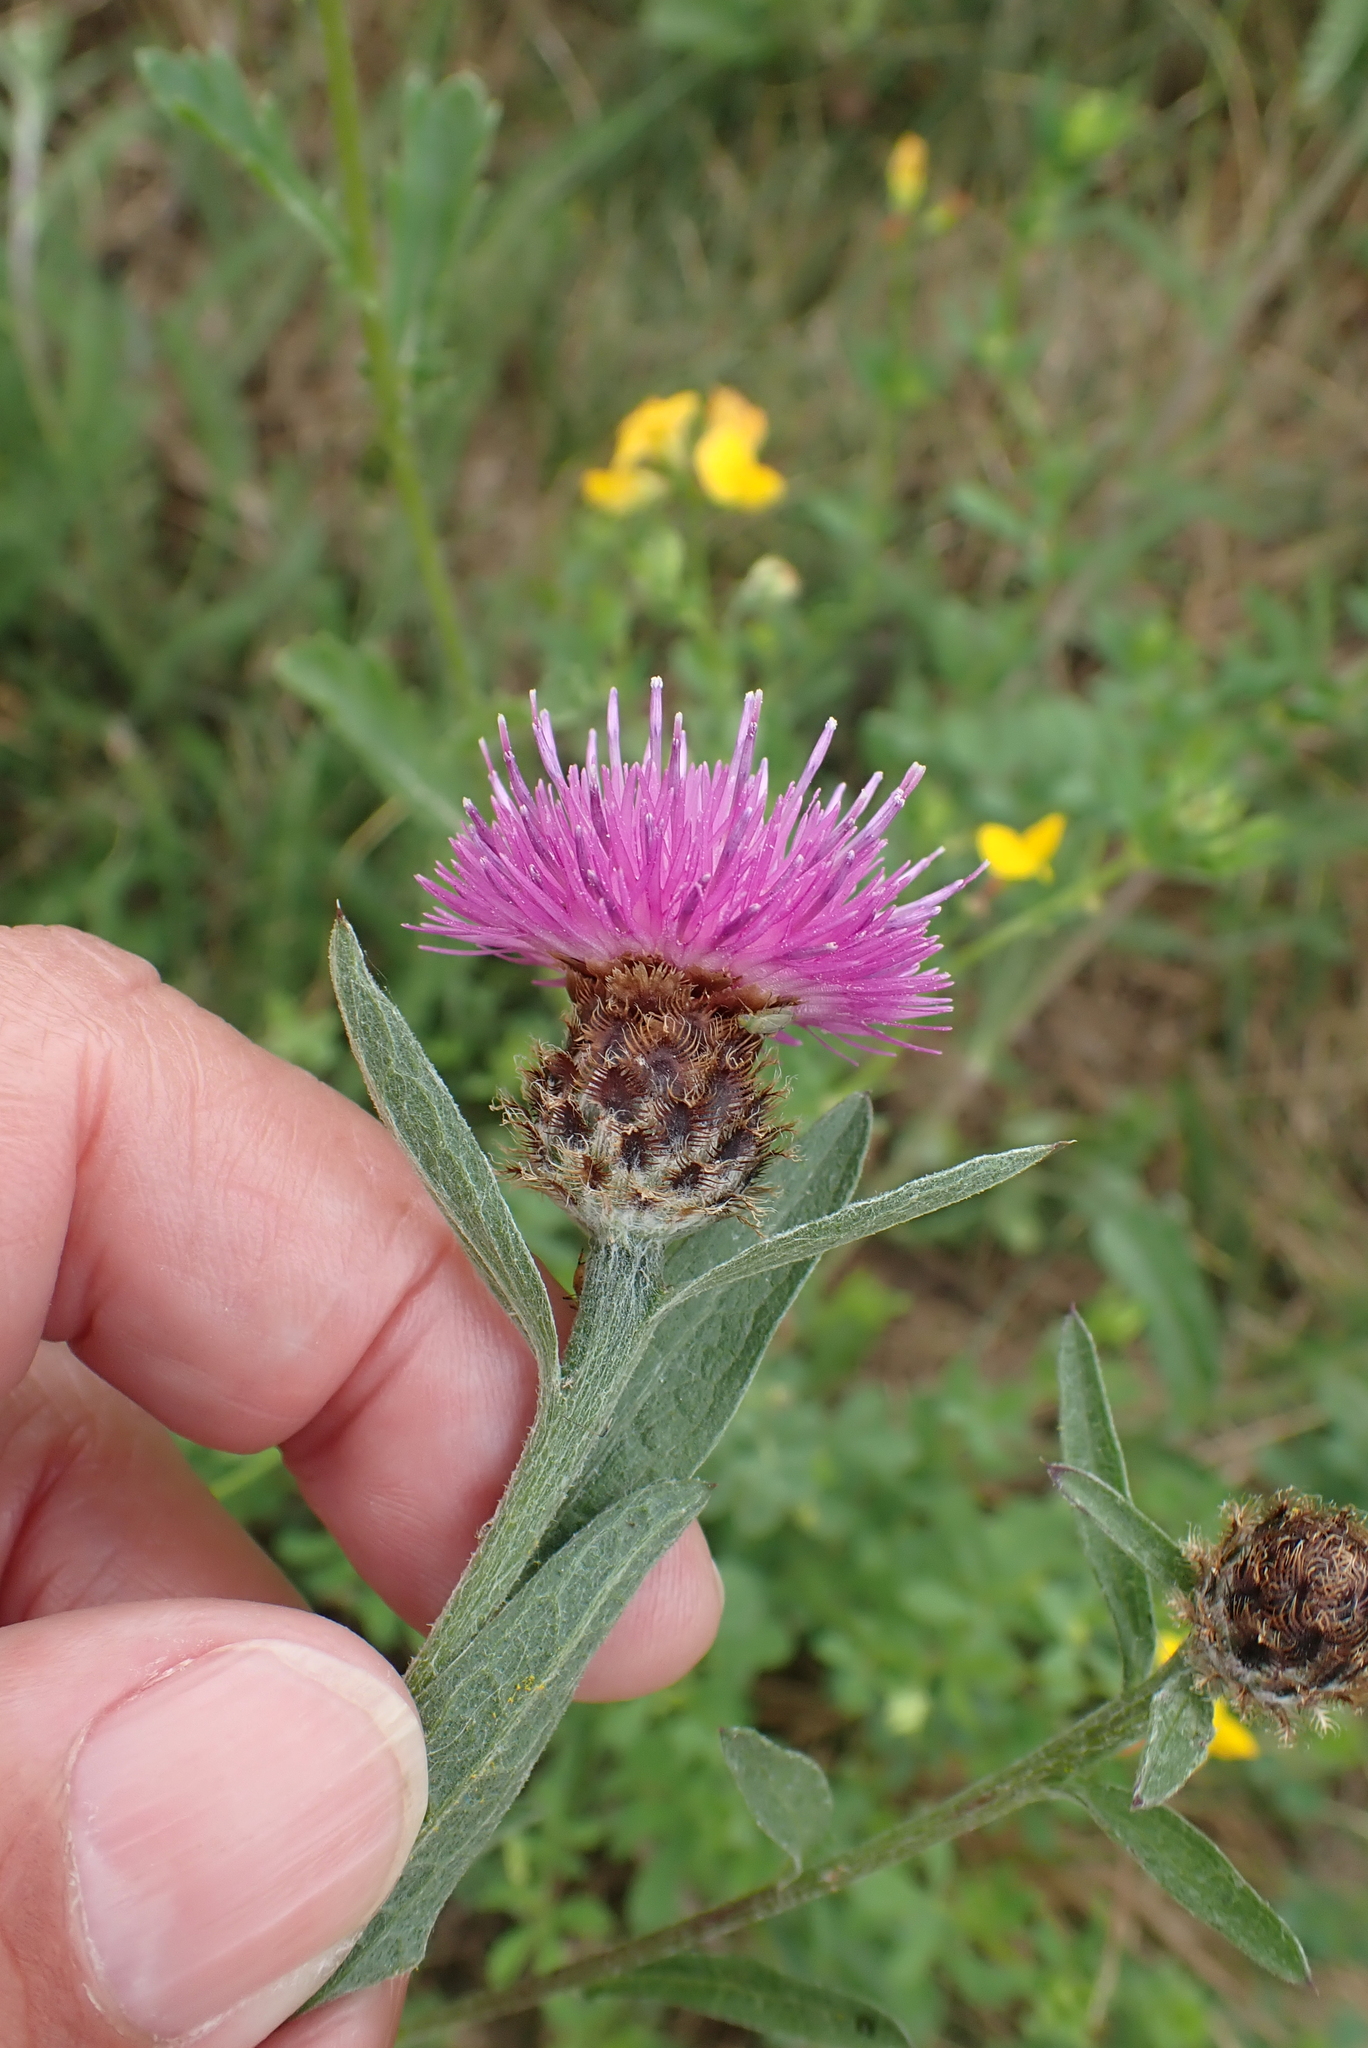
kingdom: Plantae
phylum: Tracheophyta
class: Magnoliopsida
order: Asterales
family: Asteraceae
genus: Centaurea
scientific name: Centaurea nigra
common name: Lesser knapweed
